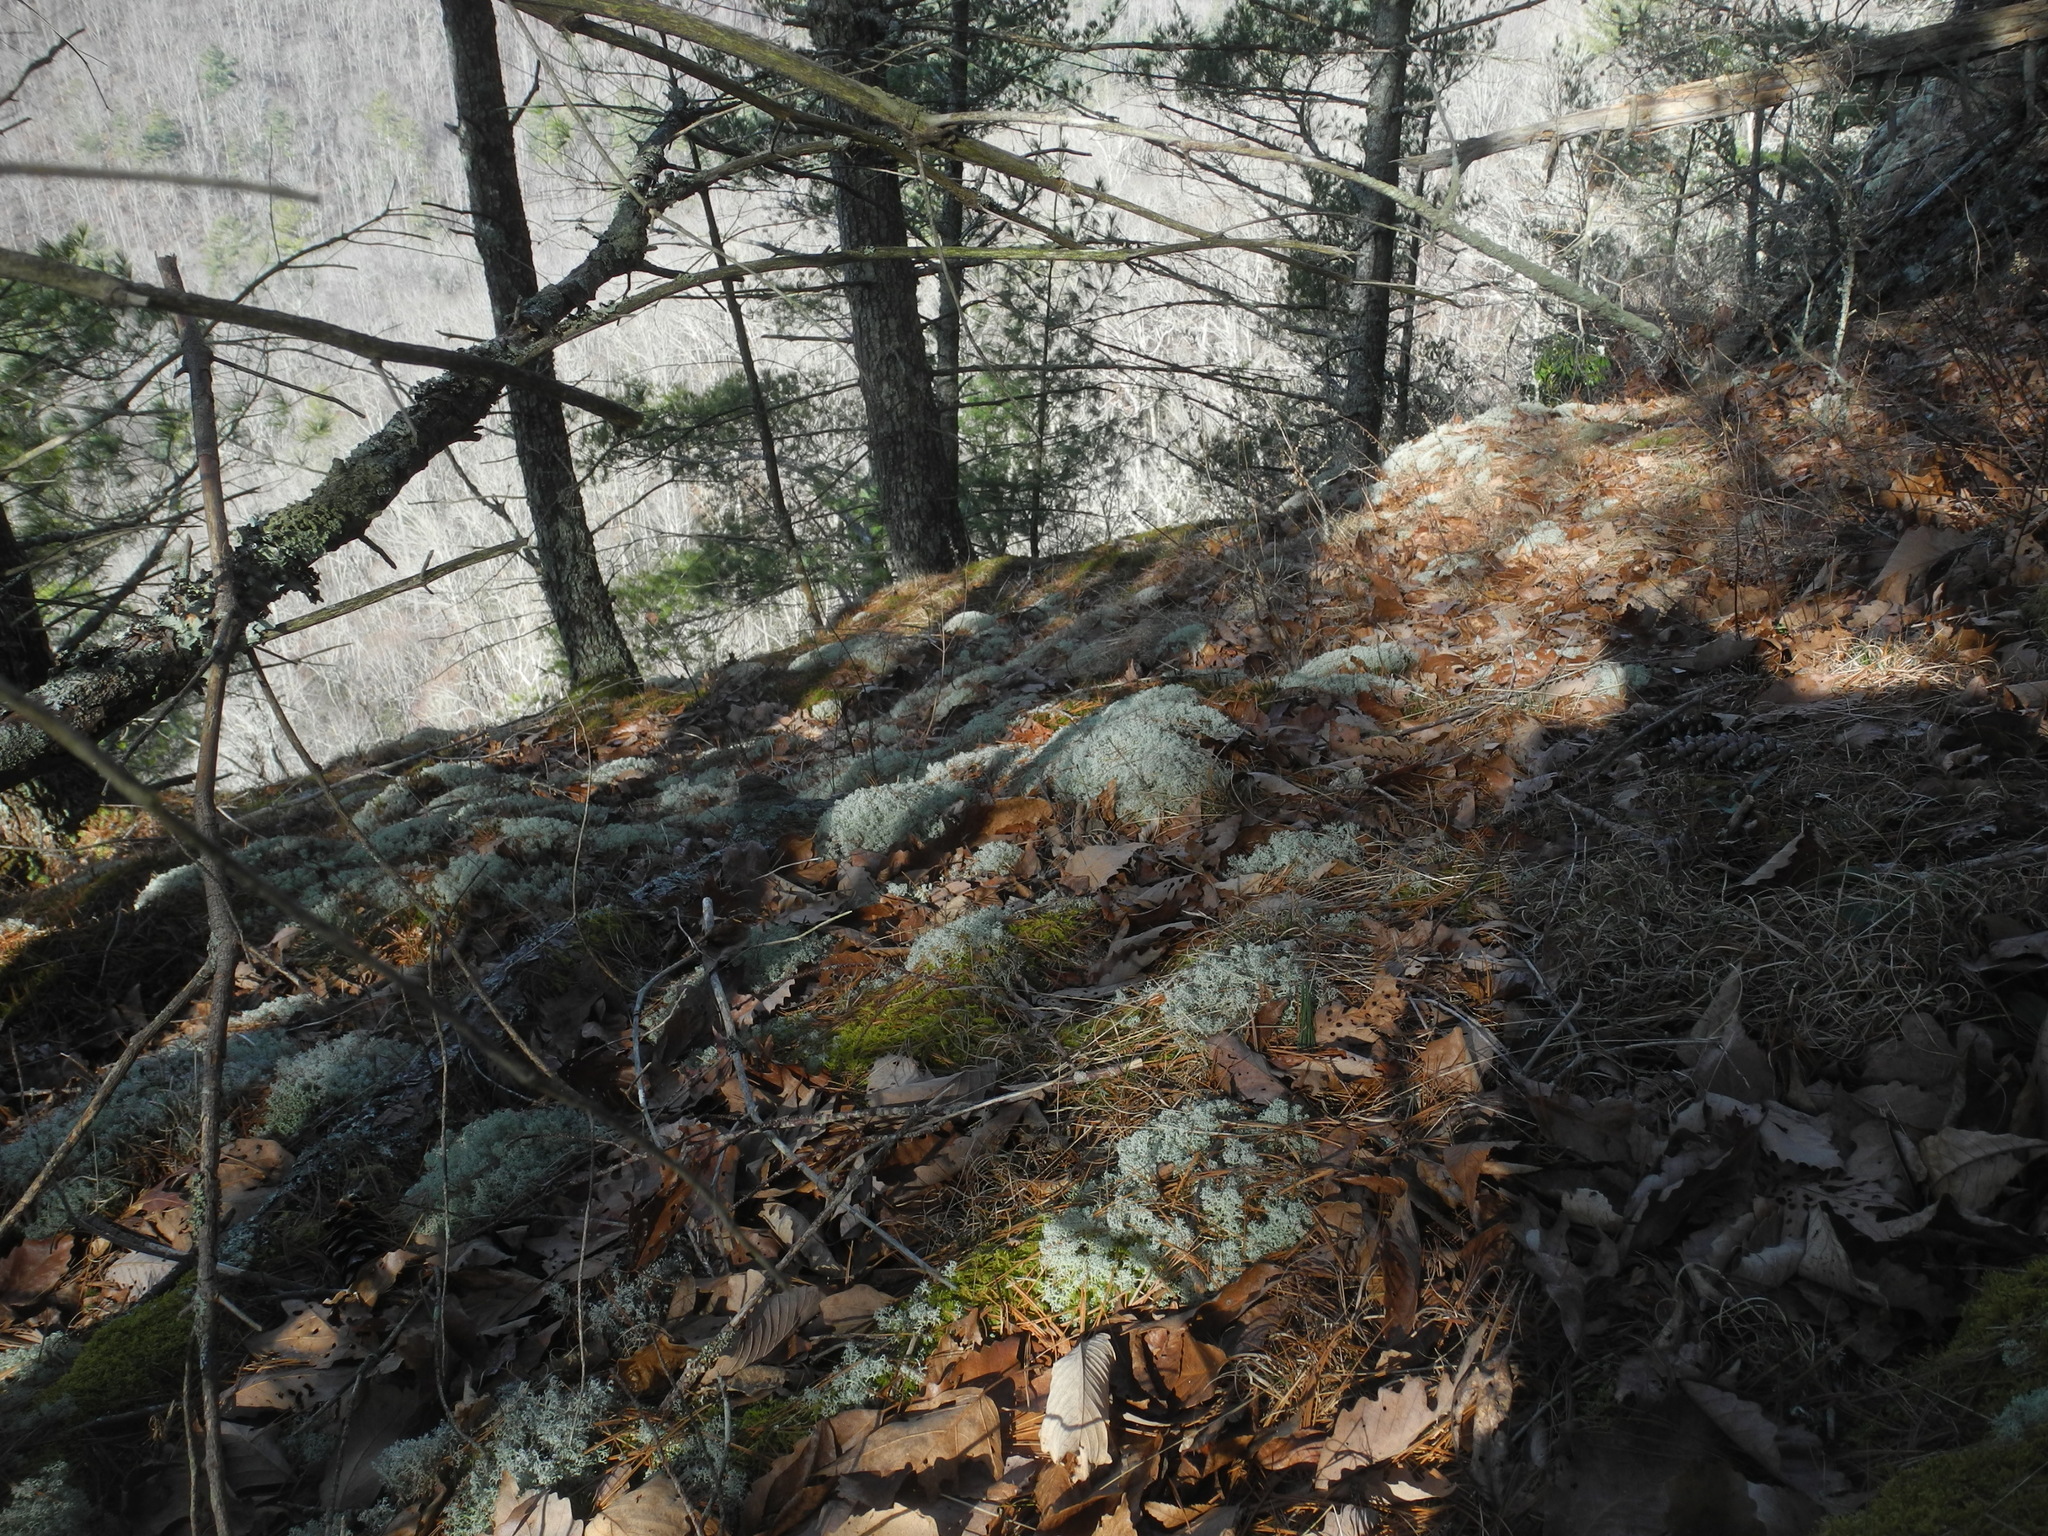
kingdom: Fungi
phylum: Ascomycota
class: Lecanoromycetes
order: Lecanorales
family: Cladoniaceae
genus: Cladonia
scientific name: Cladonia subtenuis
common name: Dixie reindeer lichen
